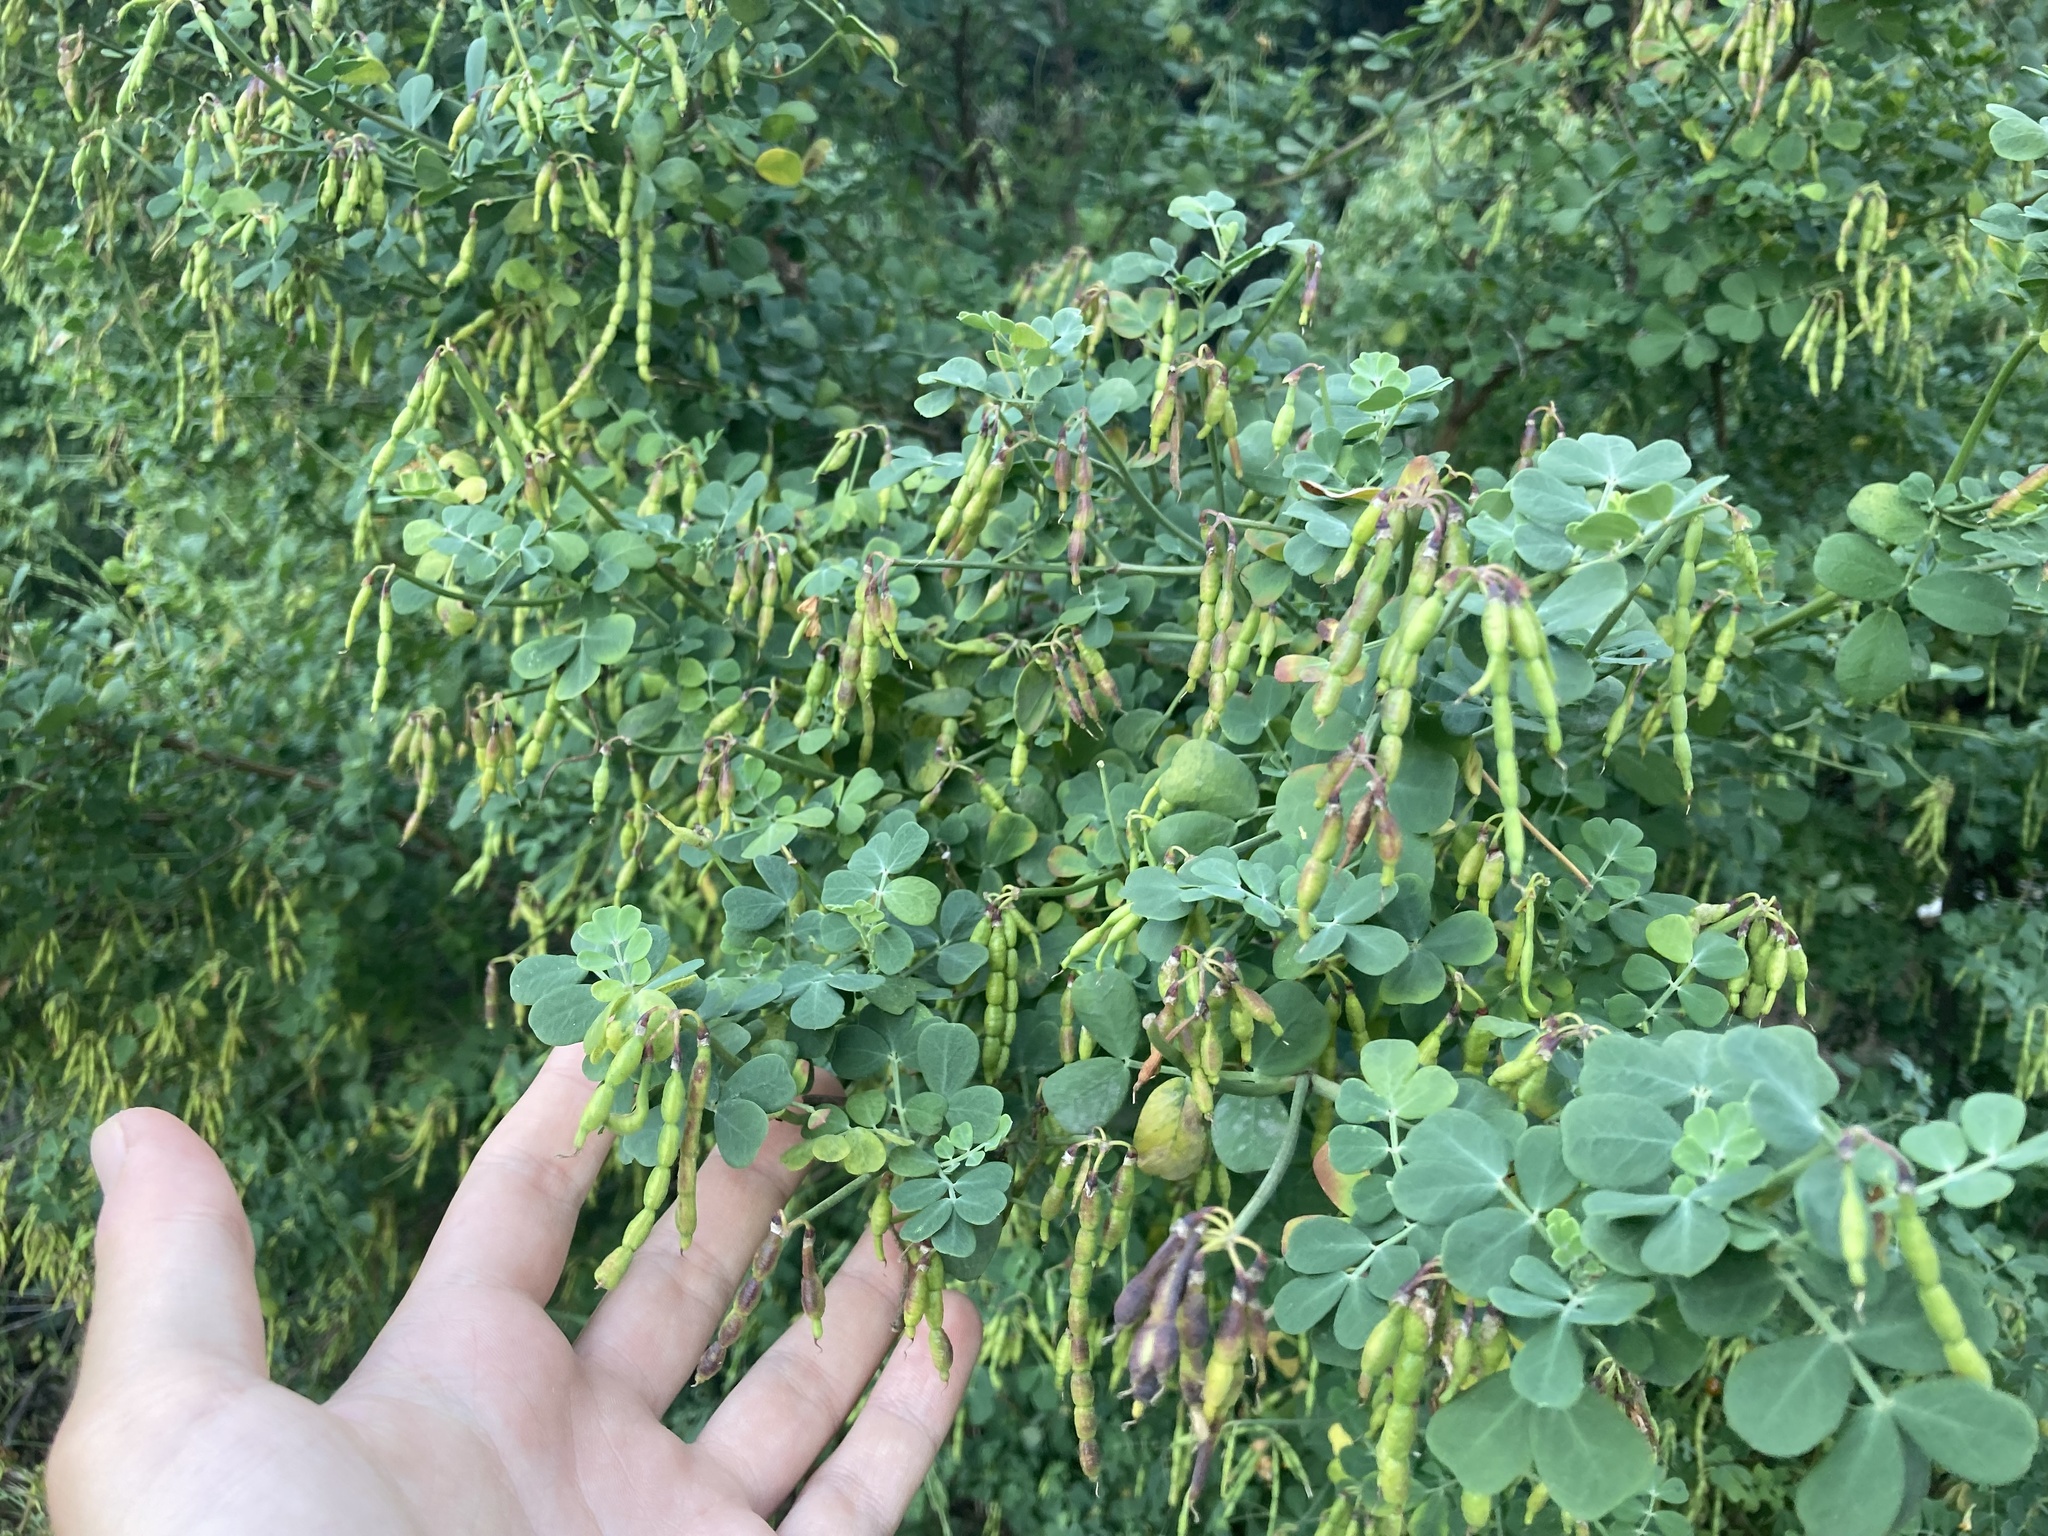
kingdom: Plantae
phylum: Tracheophyta
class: Magnoliopsida
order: Fabales
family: Fabaceae
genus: Coronilla
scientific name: Coronilla valentina
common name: Shrubby scorpion-vetch
